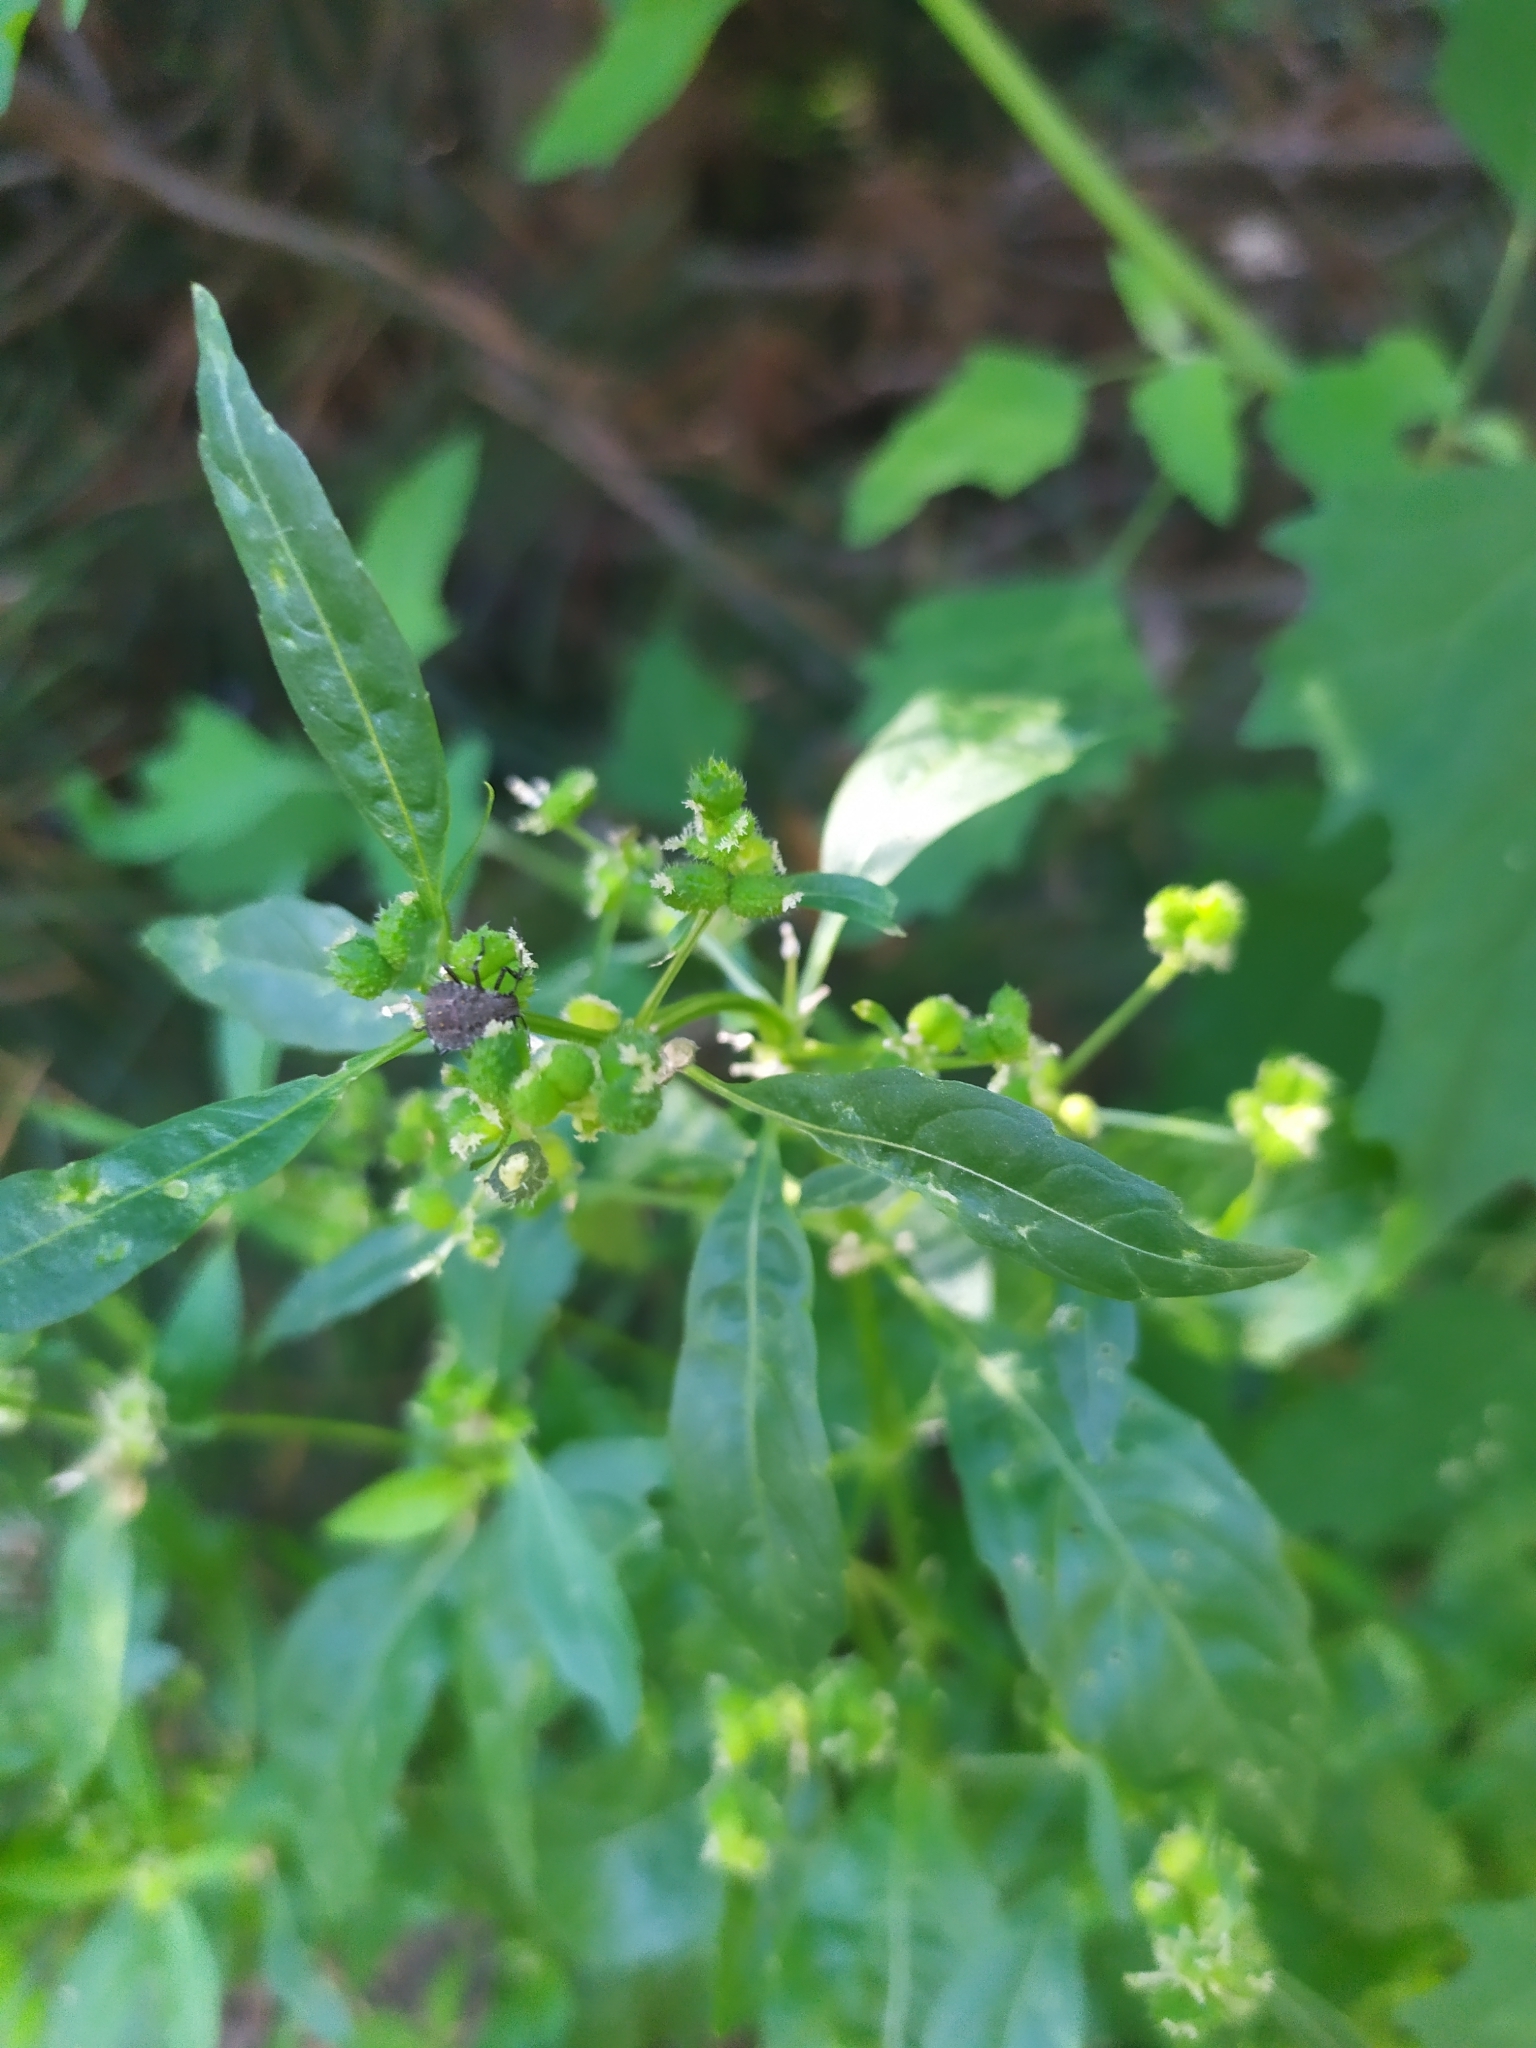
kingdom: Plantae
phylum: Tracheophyta
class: Magnoliopsida
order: Malpighiales
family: Euphorbiaceae
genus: Mercurialis
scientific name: Mercurialis annua
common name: Annual mercury
